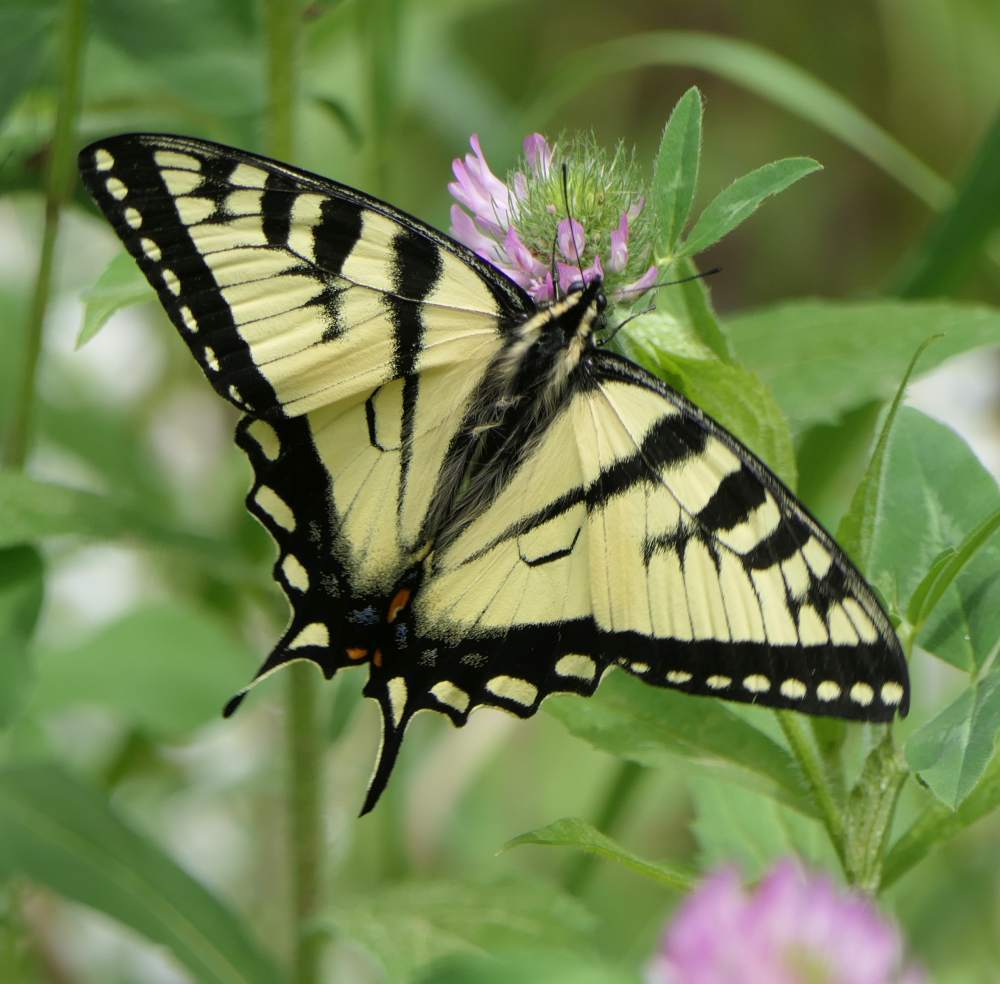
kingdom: Animalia
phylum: Arthropoda
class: Insecta
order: Lepidoptera
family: Papilionidae
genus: Papilio
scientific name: Papilio canadensis
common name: Canadian tiger swallowtail
